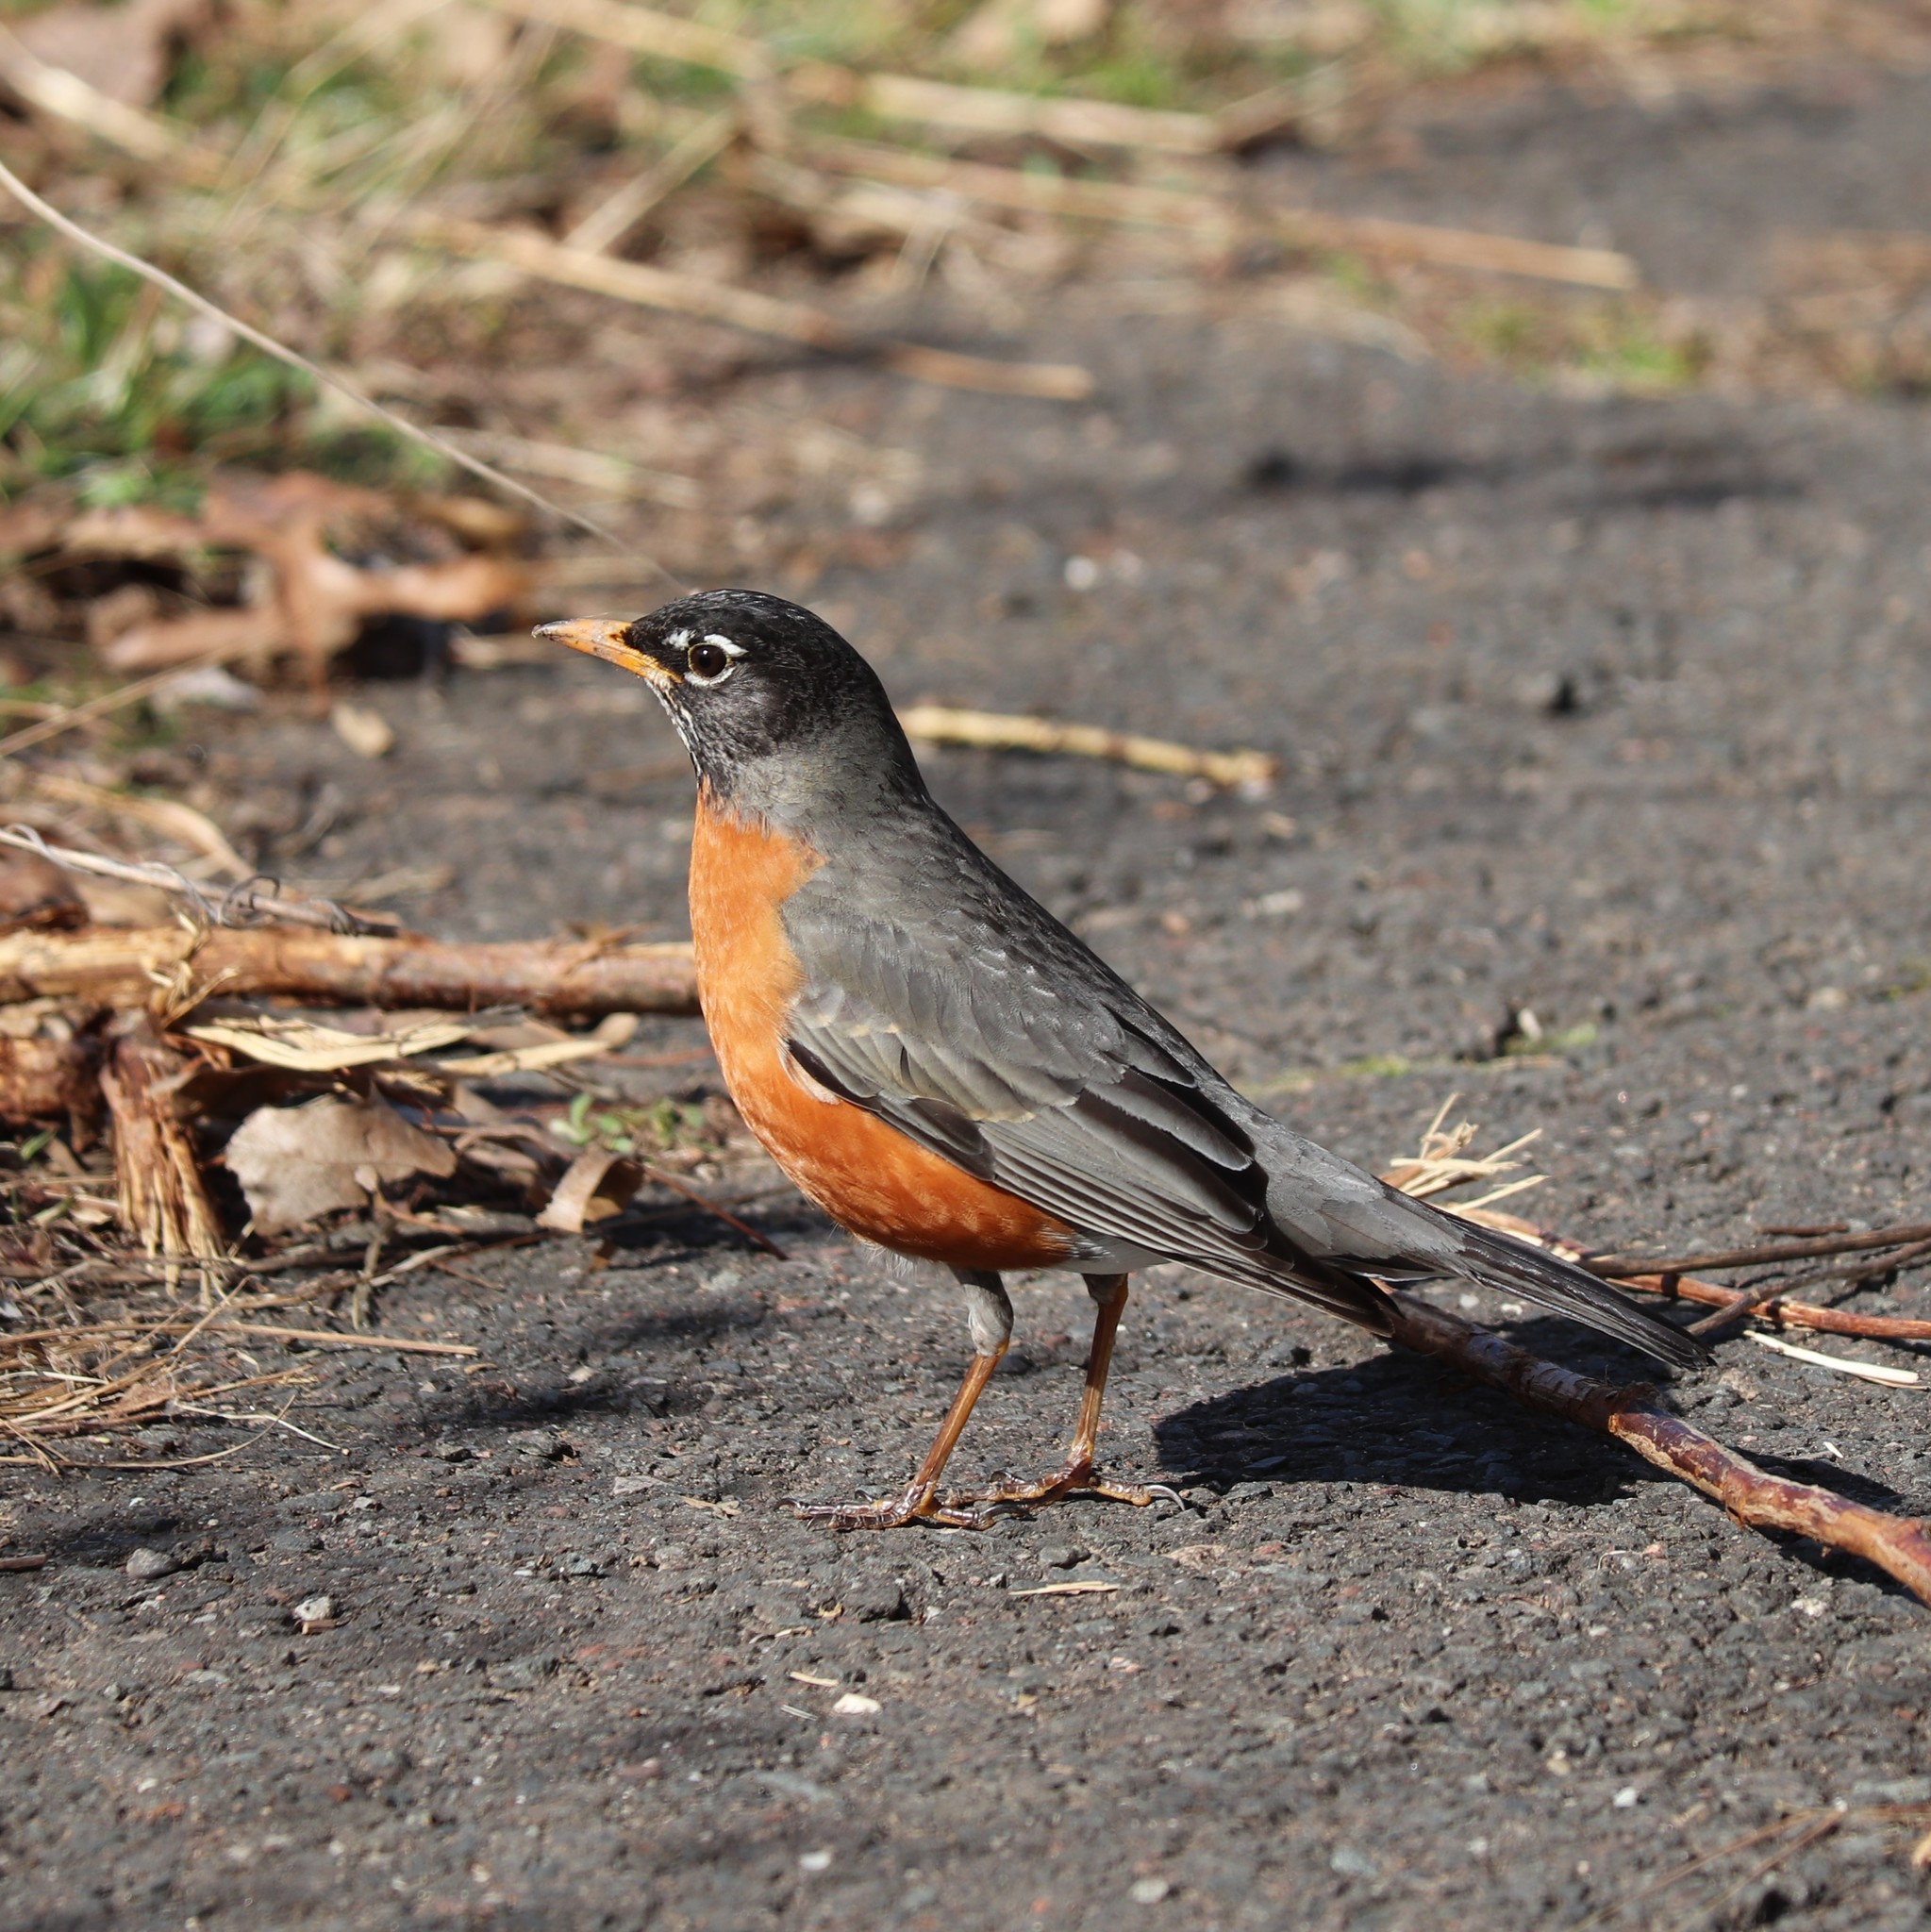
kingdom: Animalia
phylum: Chordata
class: Aves
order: Passeriformes
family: Turdidae
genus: Turdus
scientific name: Turdus migratorius
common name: American robin
